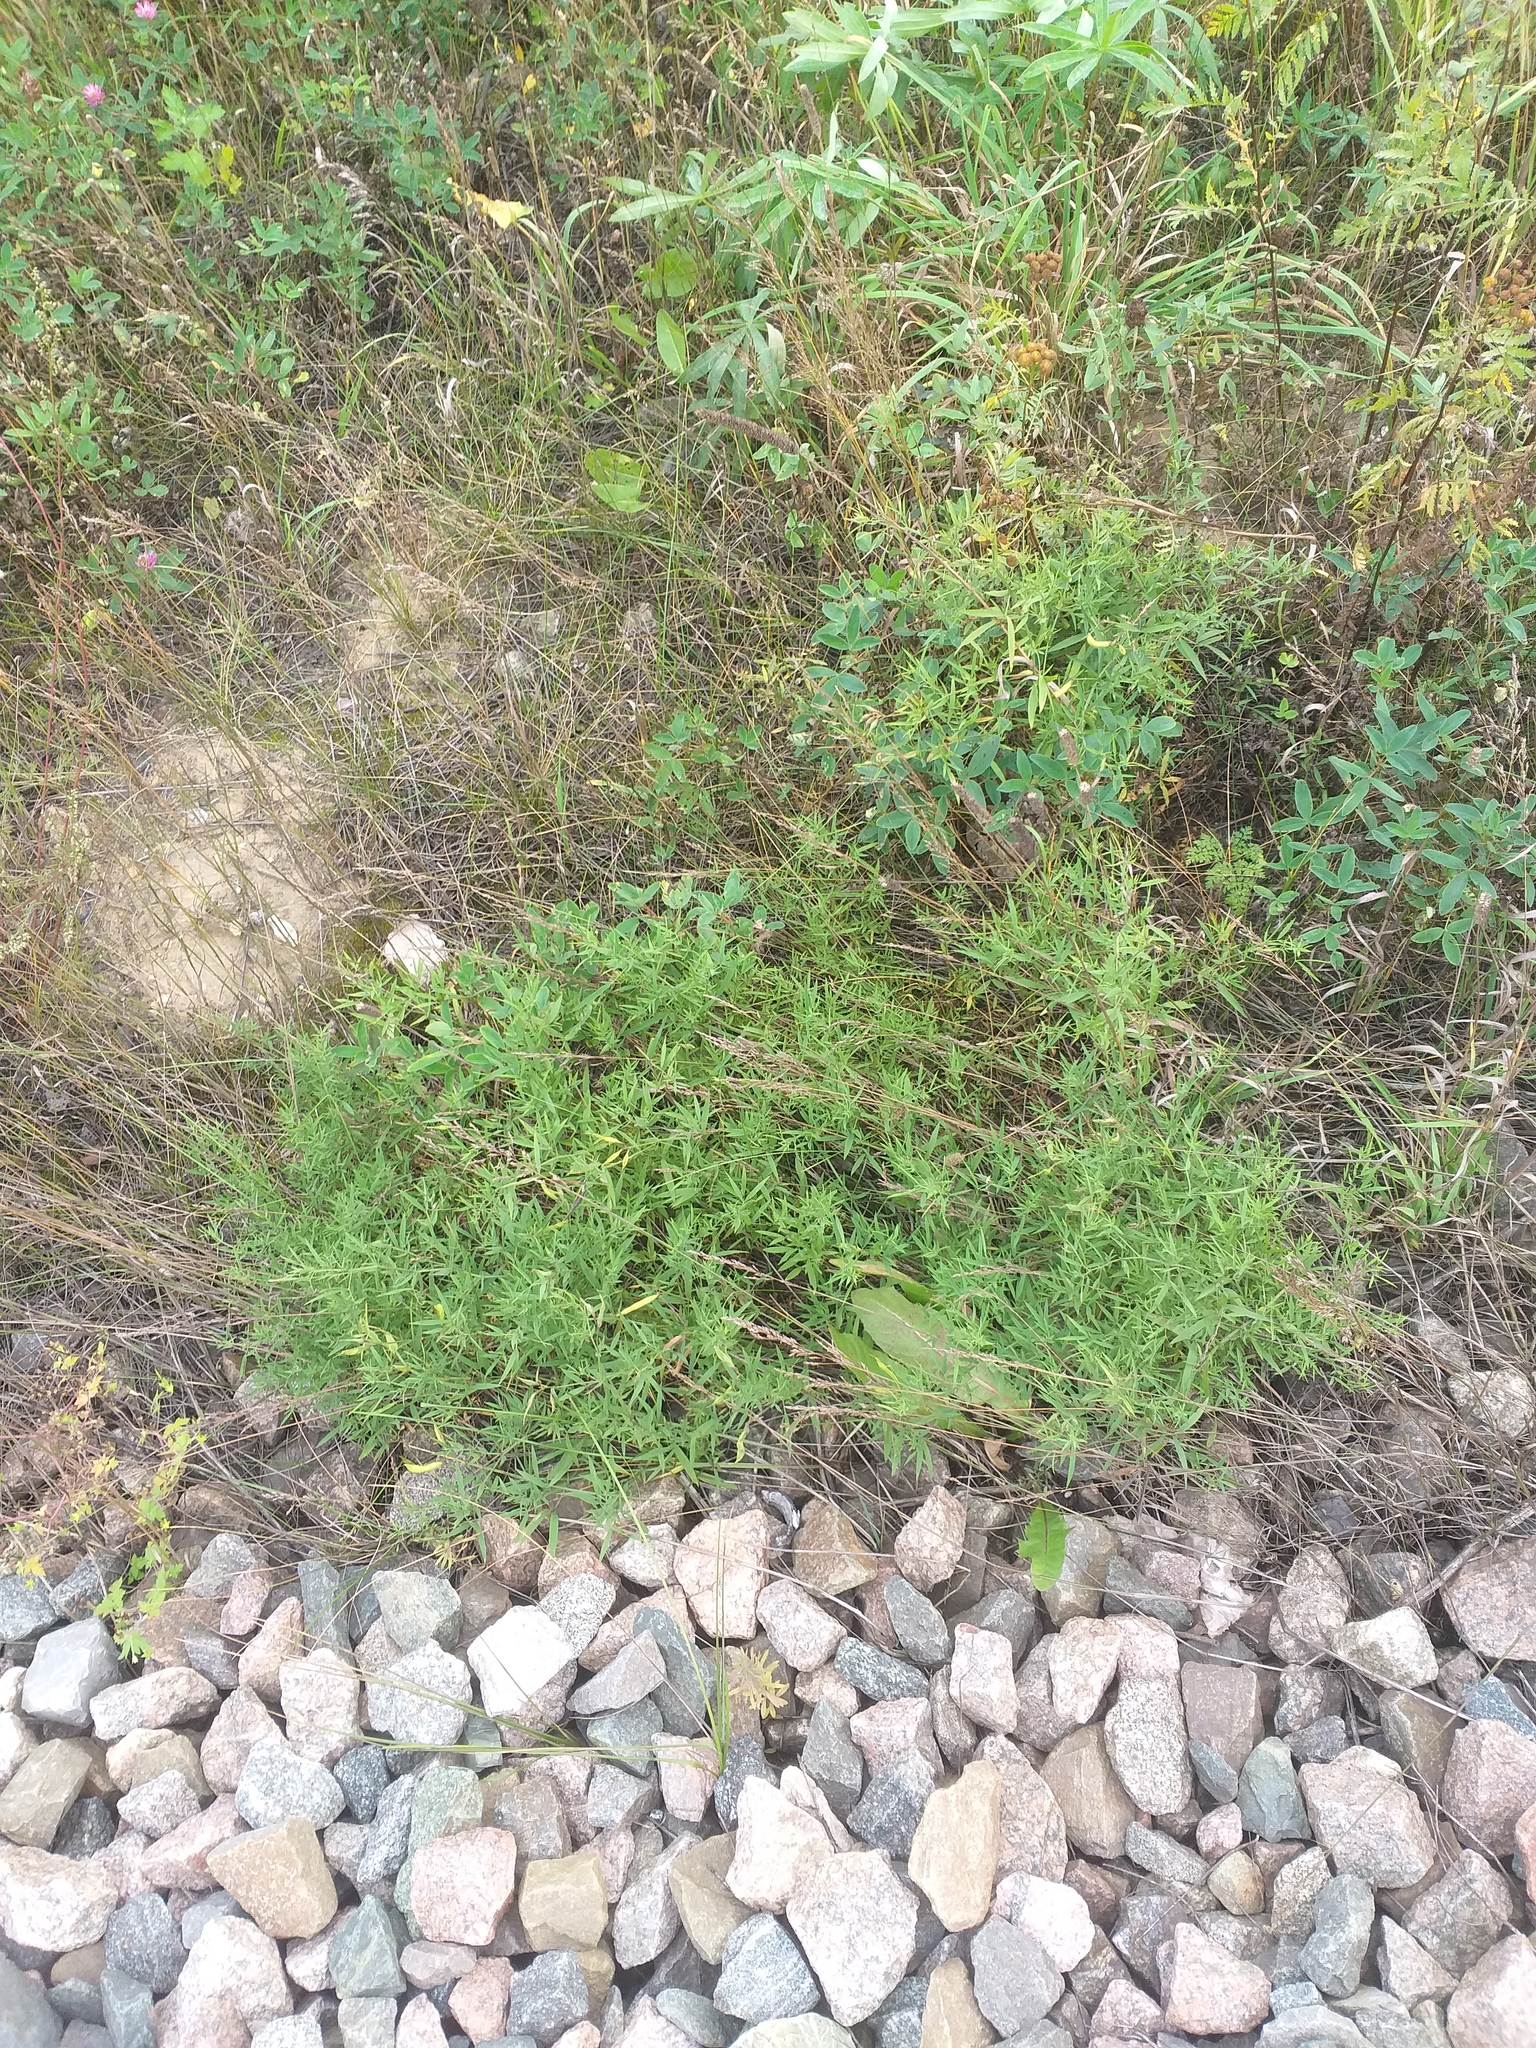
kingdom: Plantae
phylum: Tracheophyta
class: Magnoliopsida
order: Fabales
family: Fabaceae
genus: Lathyrus
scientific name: Lathyrus pratensis
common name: Meadow vetchling
